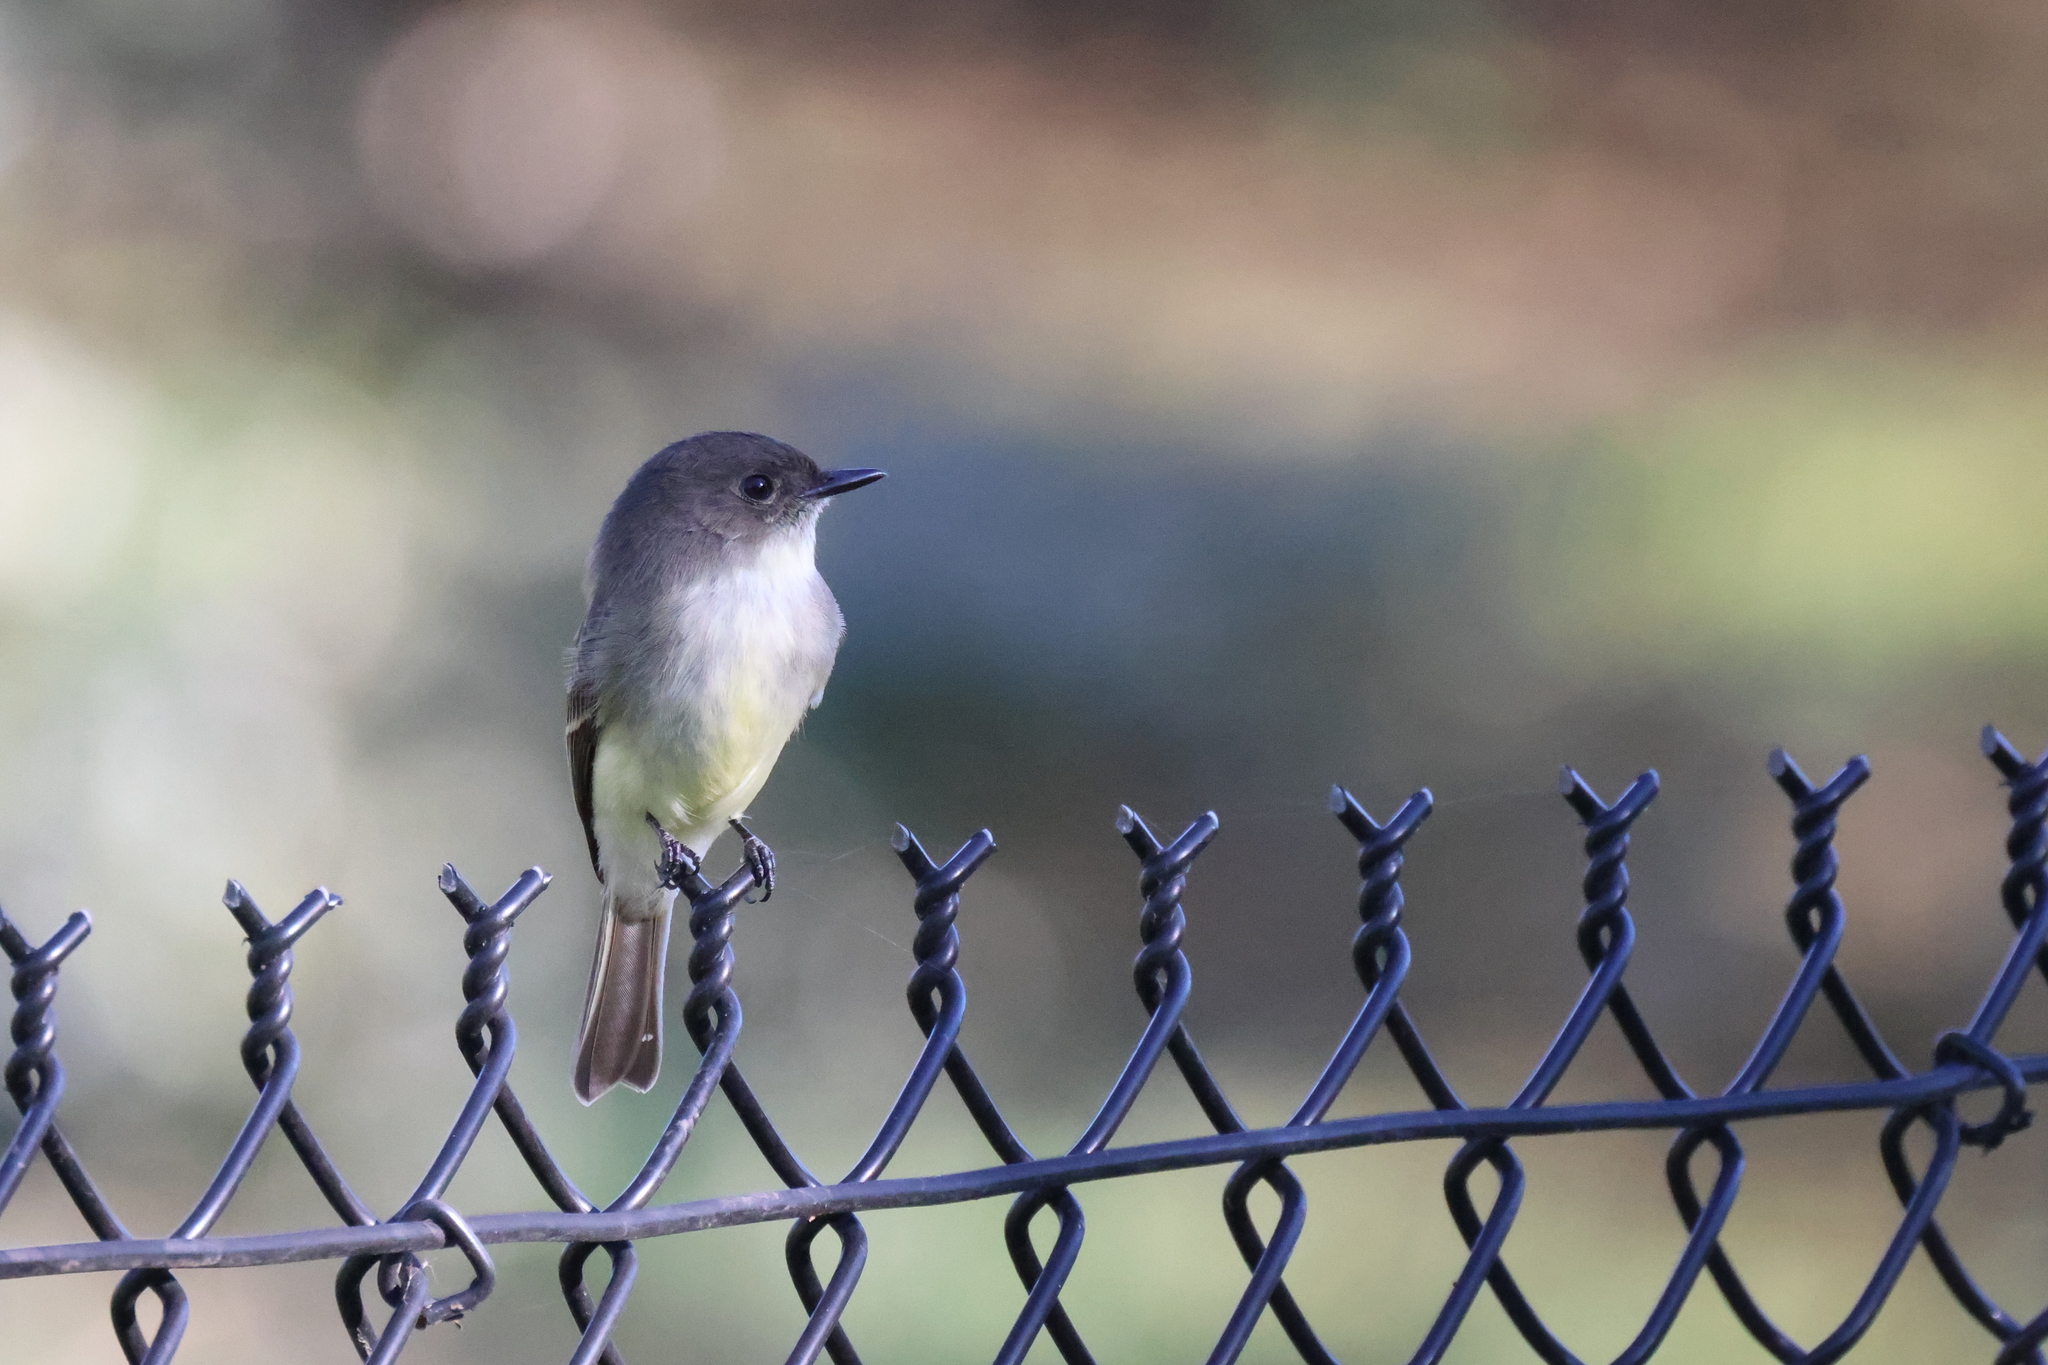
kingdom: Animalia
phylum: Chordata
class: Aves
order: Passeriformes
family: Tyrannidae
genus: Sayornis
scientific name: Sayornis phoebe
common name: Eastern phoebe
